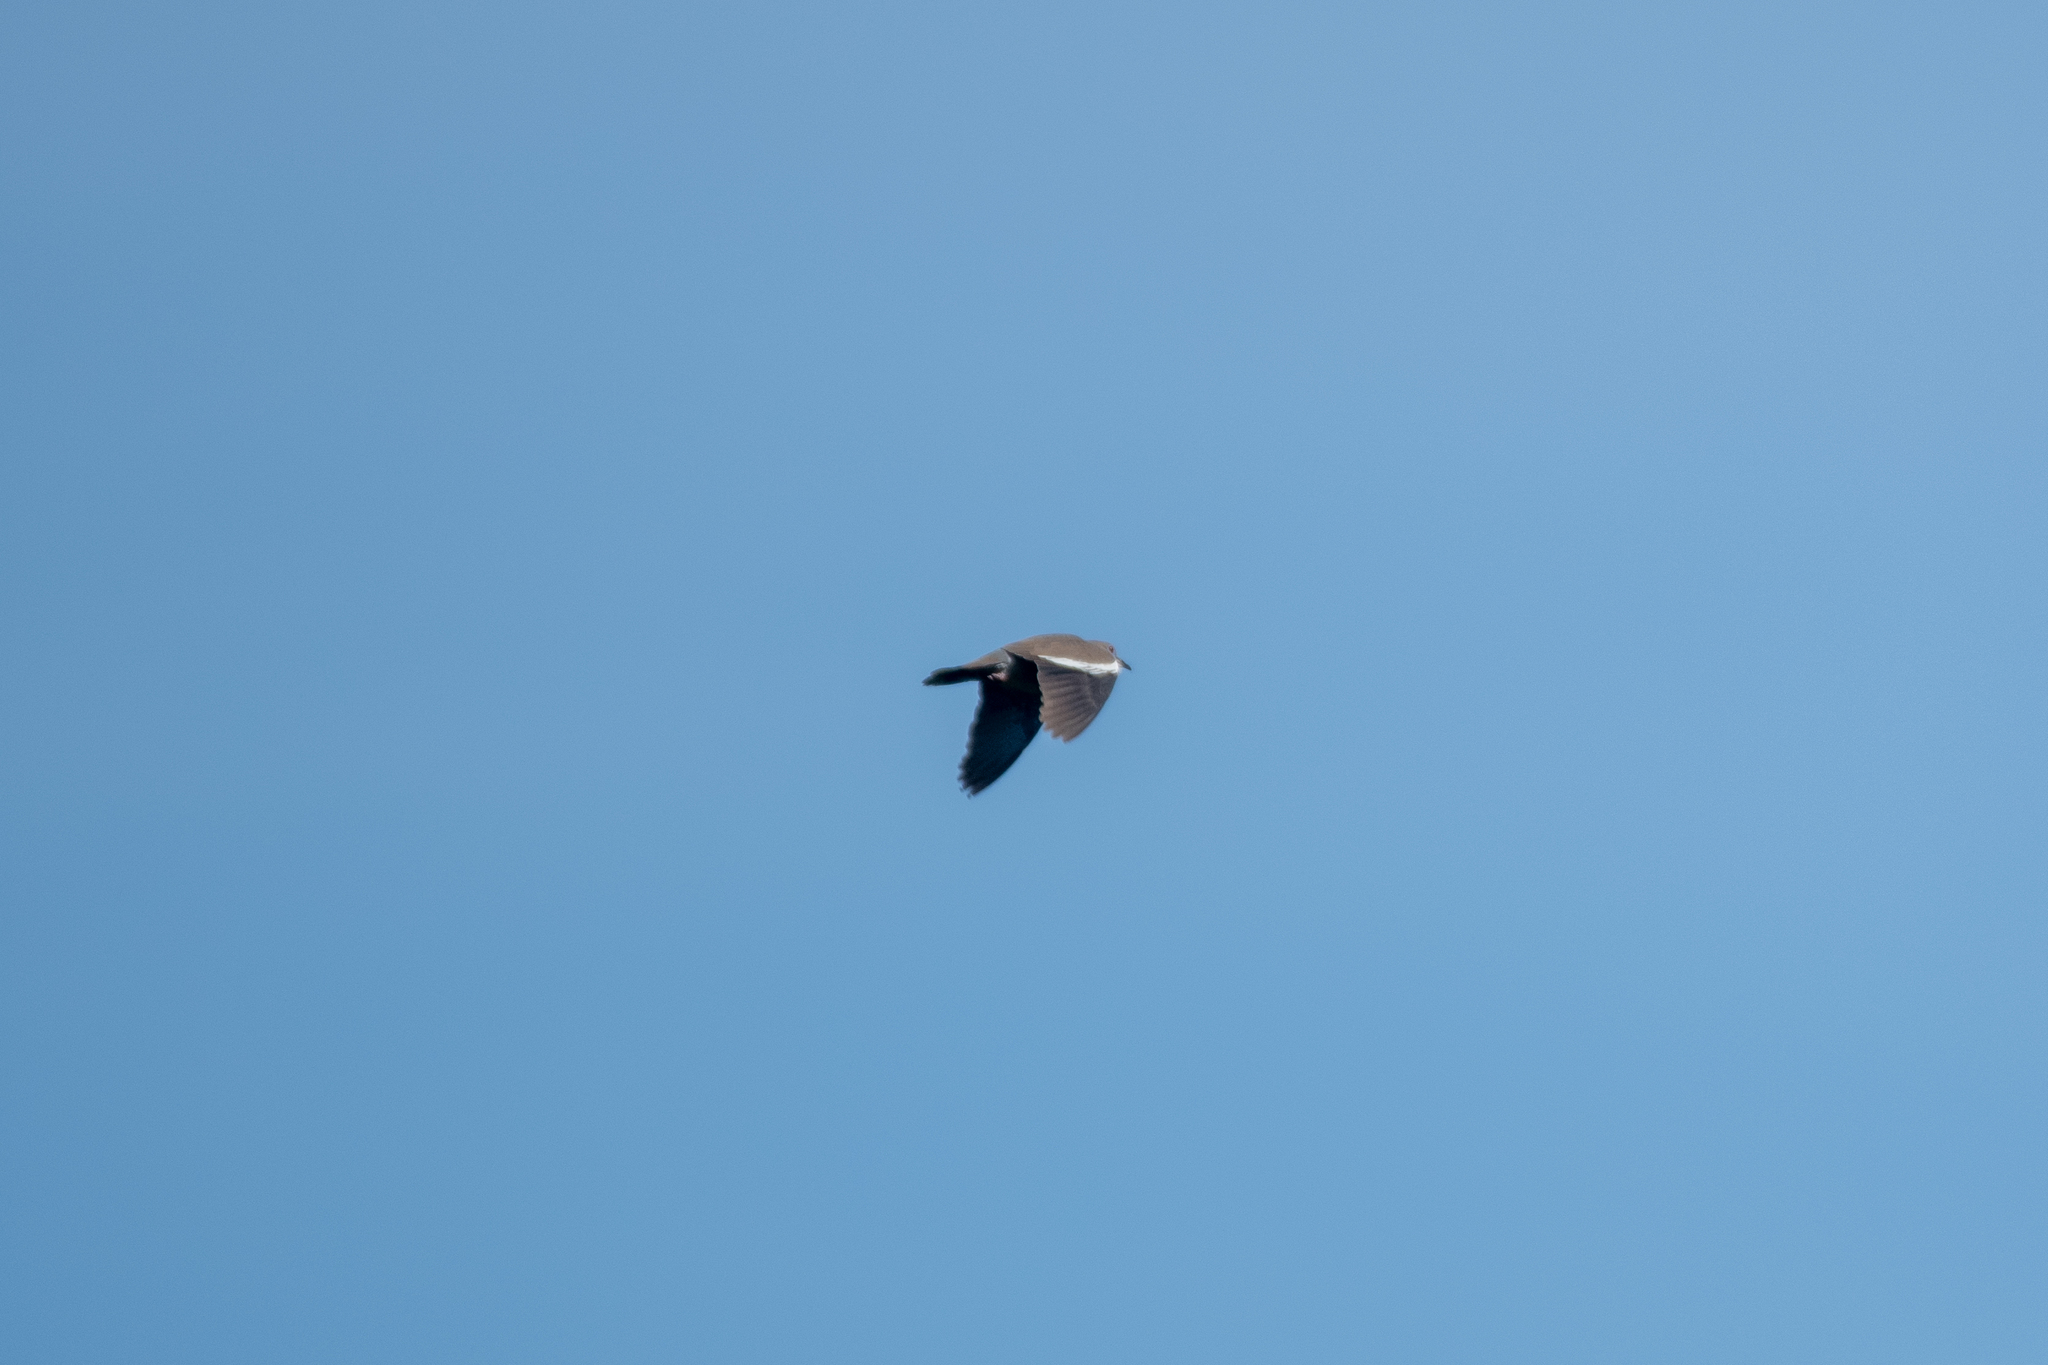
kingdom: Animalia
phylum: Chordata
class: Aves
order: Columbiformes
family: Columbidae
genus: Zenaida
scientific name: Zenaida asiatica
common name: White-winged dove
